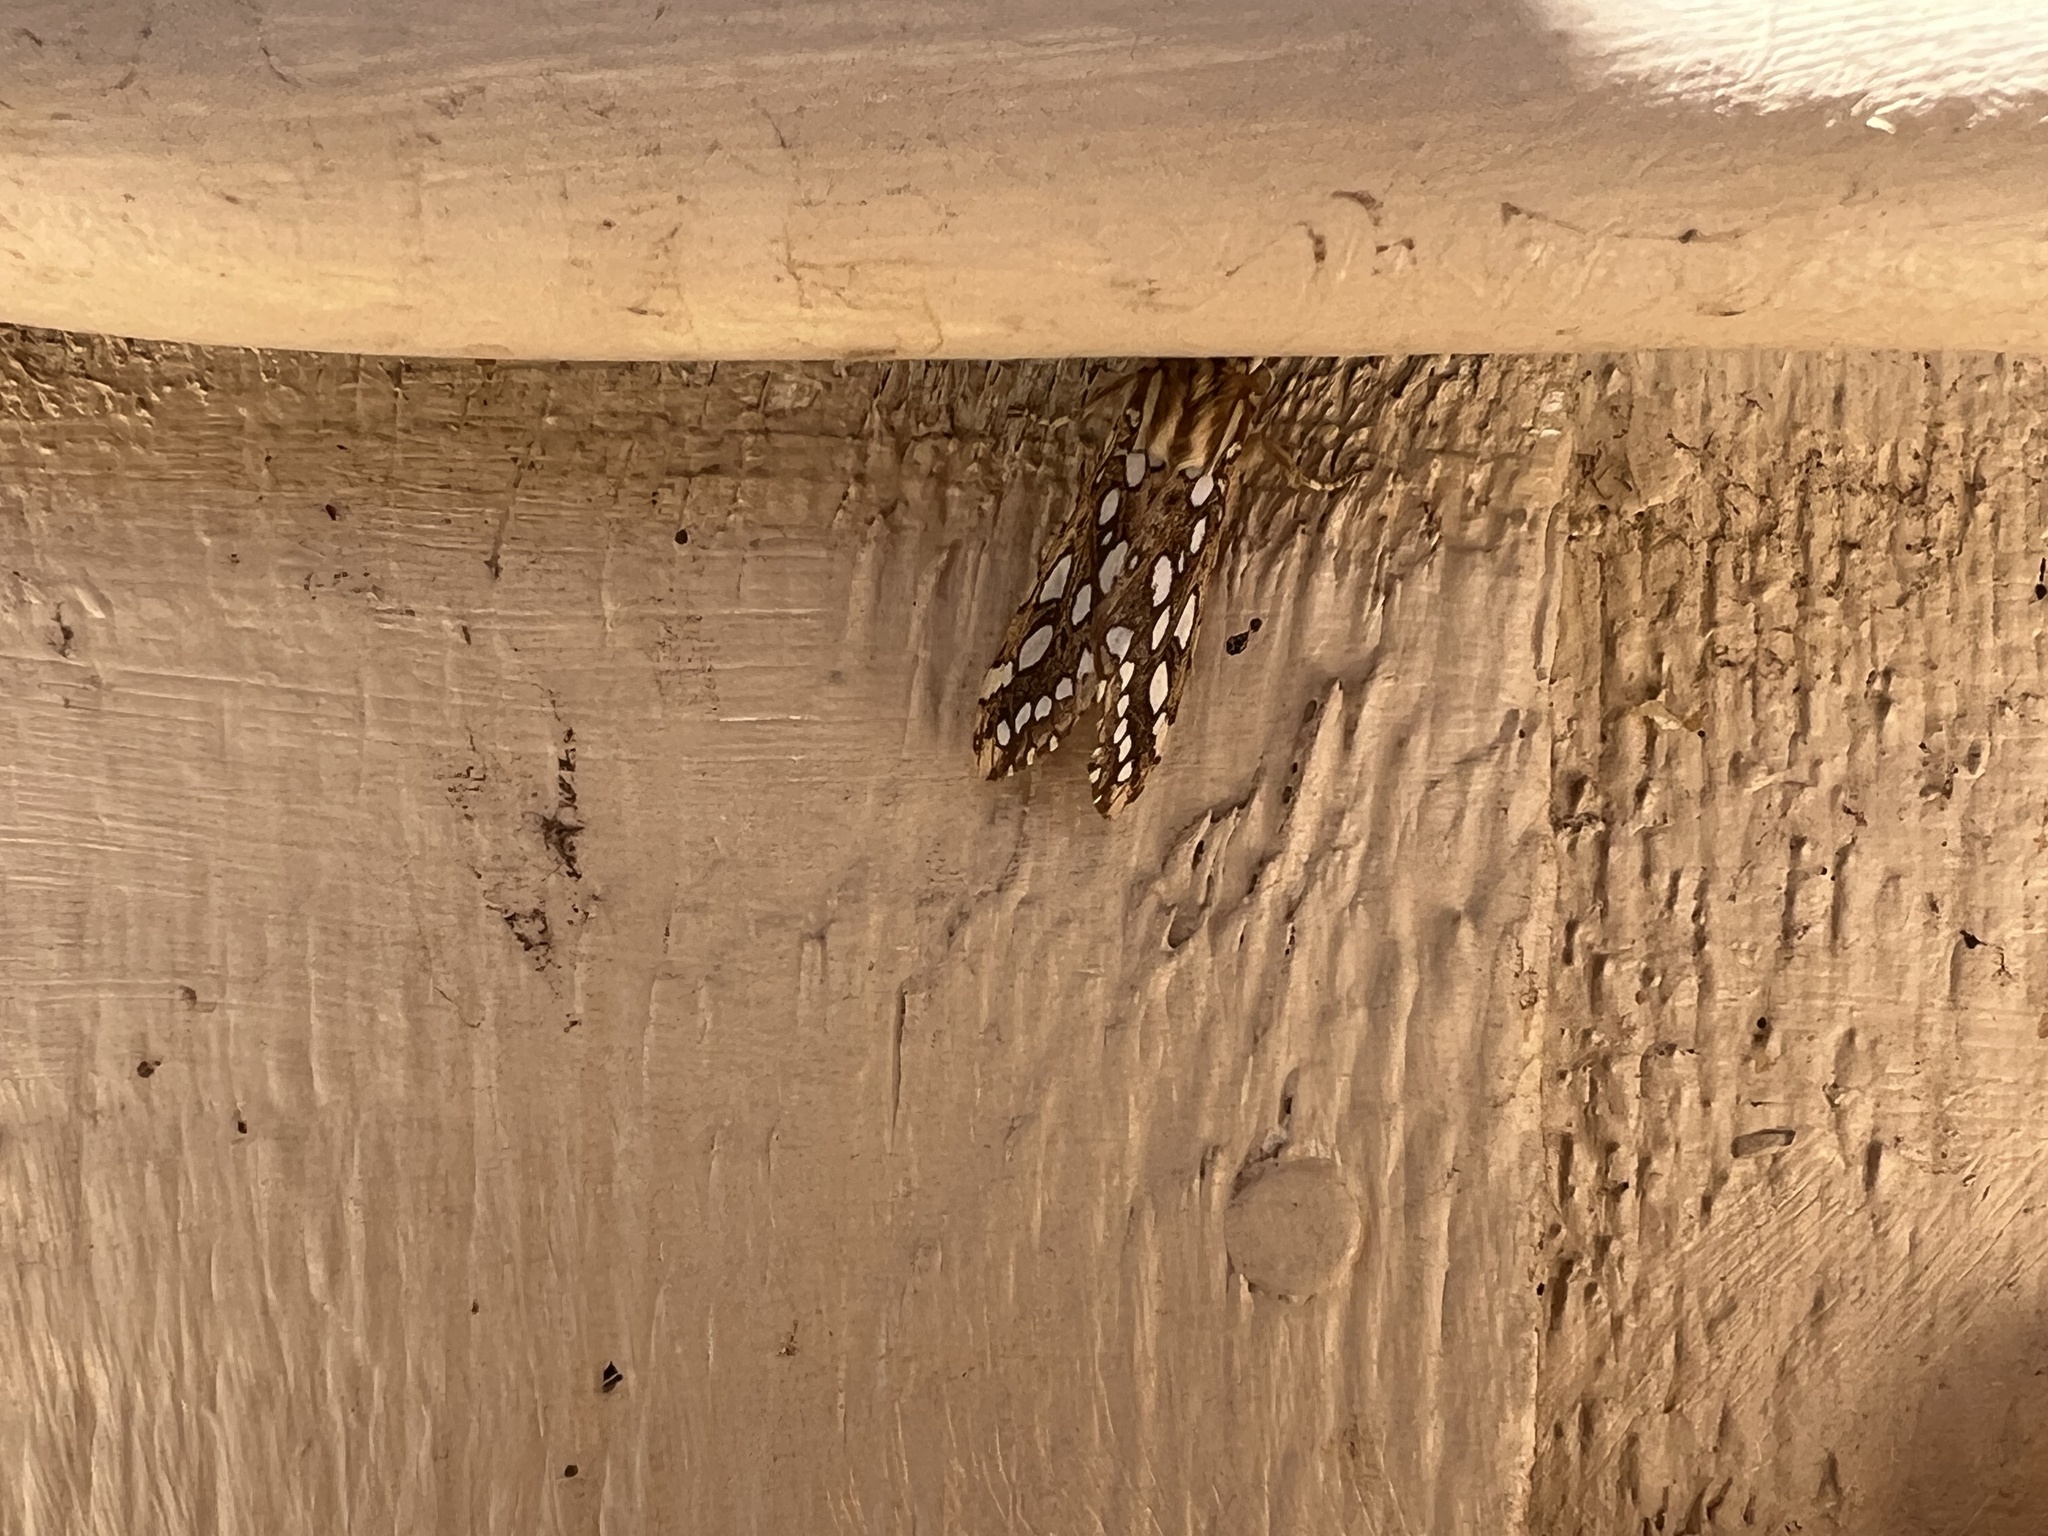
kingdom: Animalia
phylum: Arthropoda
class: Insecta
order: Lepidoptera
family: Erebidae
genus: Lophocampa
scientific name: Lophocampa argentata
